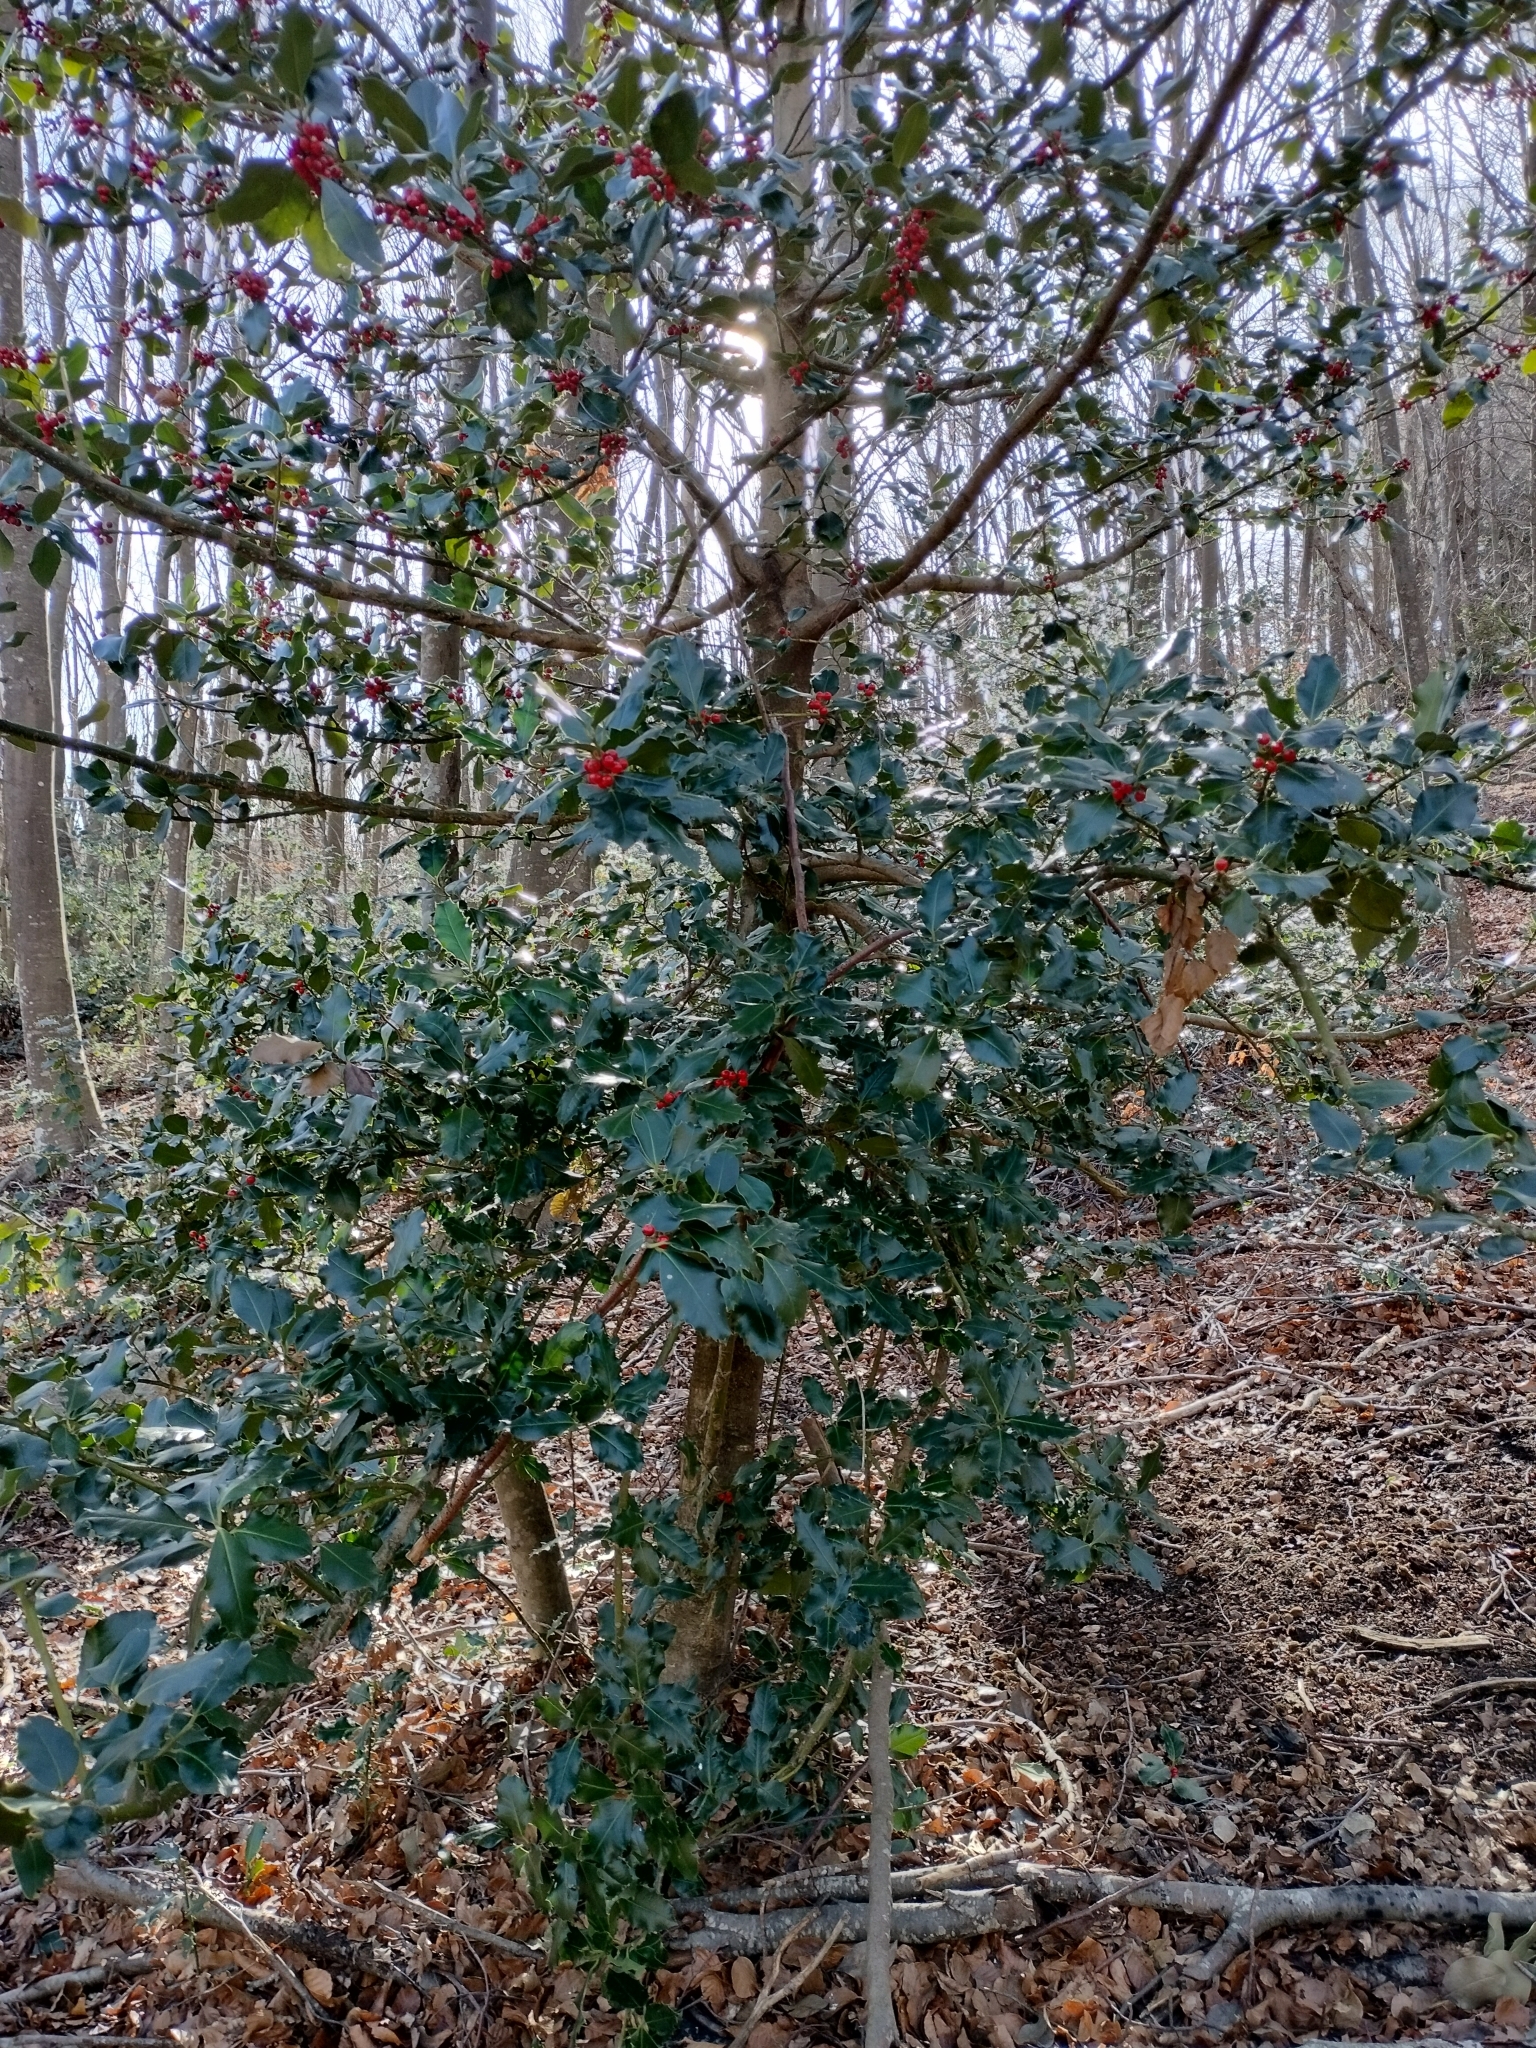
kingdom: Plantae
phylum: Tracheophyta
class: Magnoliopsida
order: Aquifoliales
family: Aquifoliaceae
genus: Ilex
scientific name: Ilex aquifolium
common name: English holly
